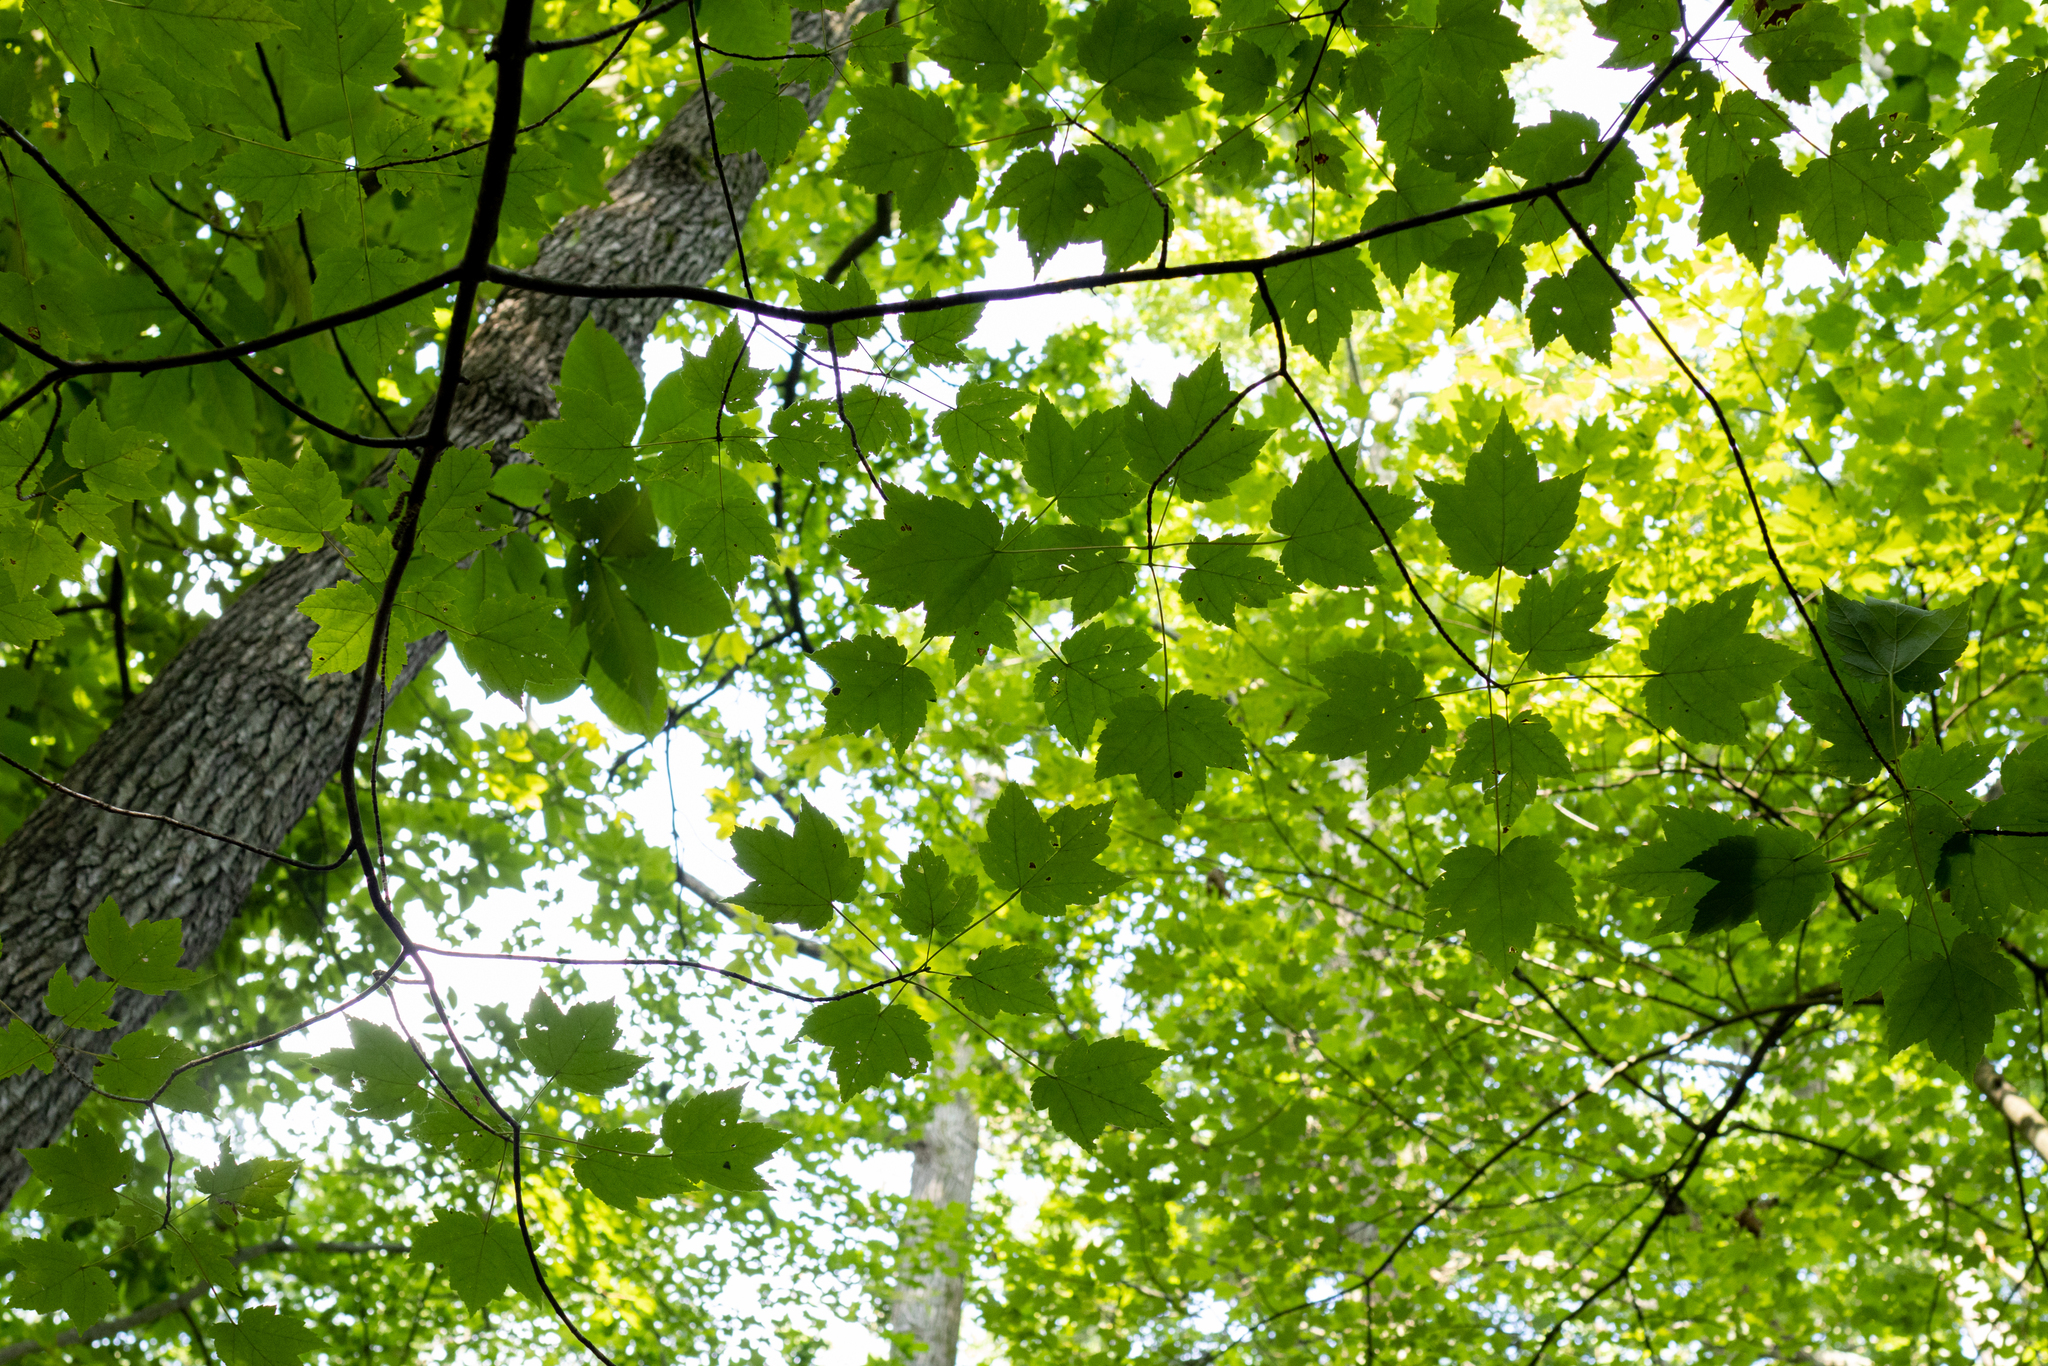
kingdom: Plantae
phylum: Tracheophyta
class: Magnoliopsida
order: Sapindales
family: Sapindaceae
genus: Acer
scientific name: Acer rubrum
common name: Red maple
